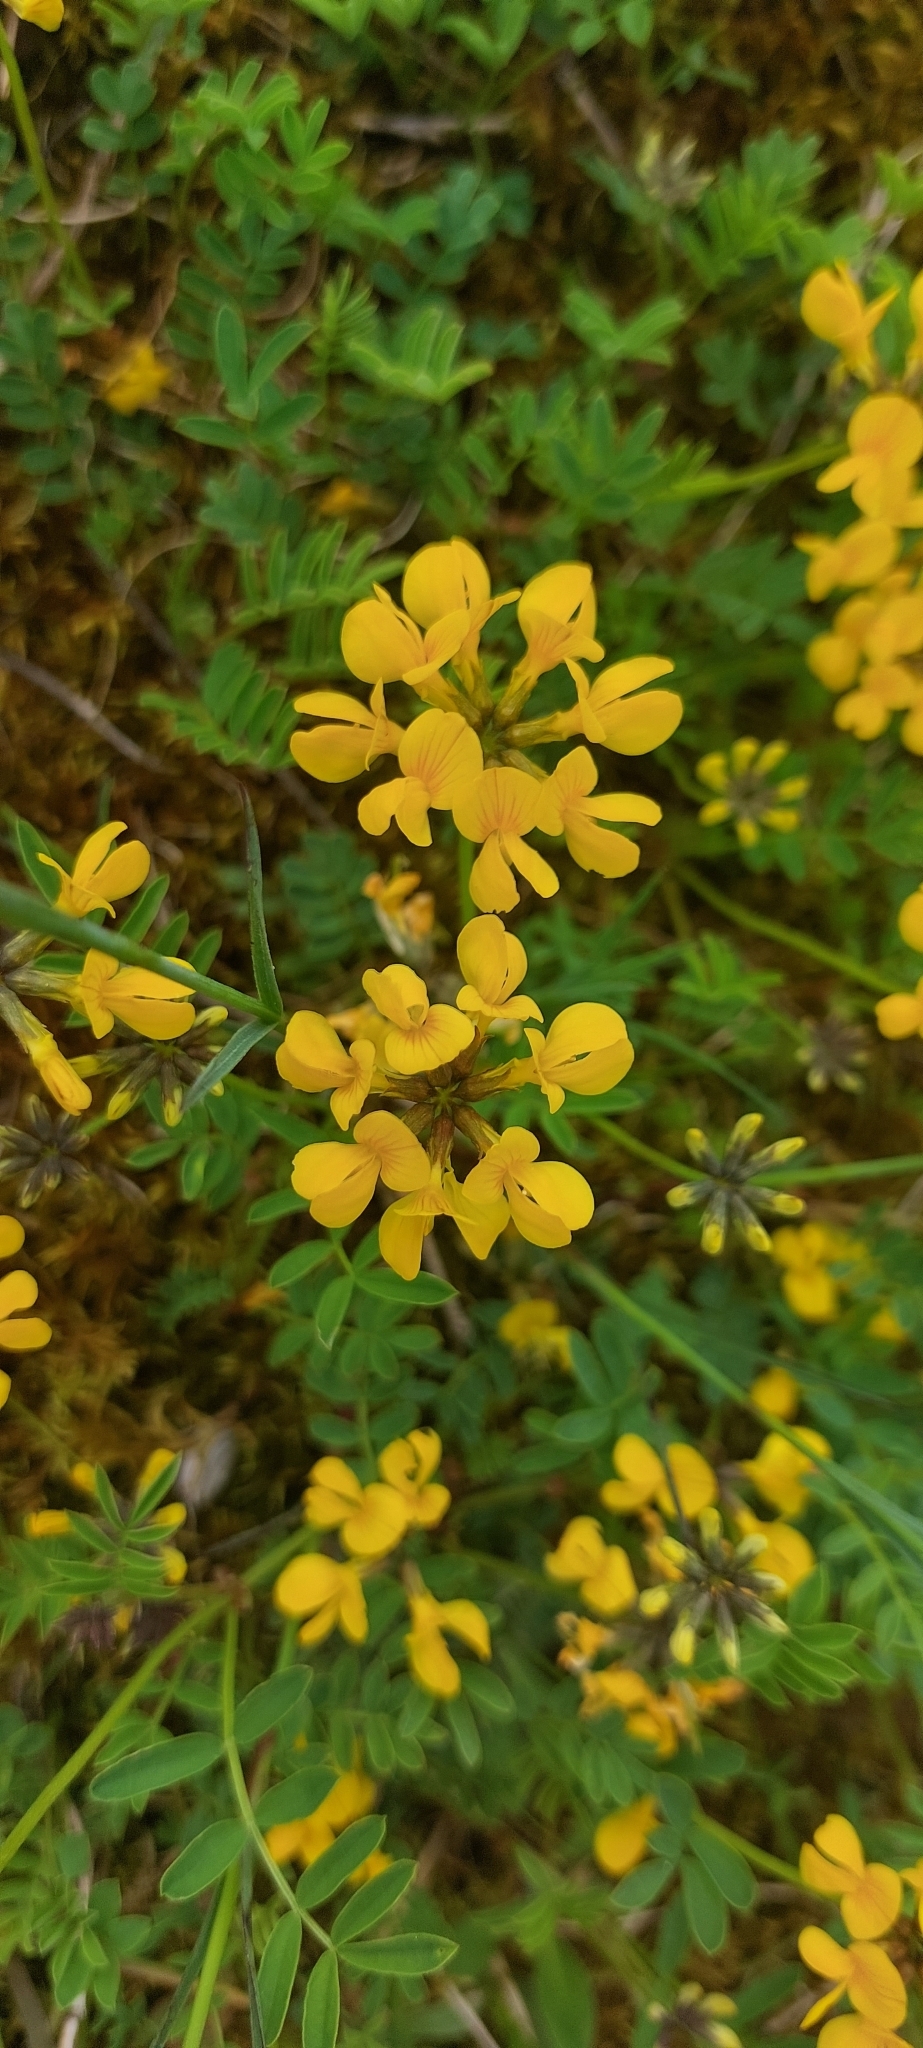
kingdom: Plantae
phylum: Tracheophyta
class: Magnoliopsida
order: Fabales
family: Fabaceae
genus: Hippocrepis
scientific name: Hippocrepis comosa
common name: Horseshoe vetch
